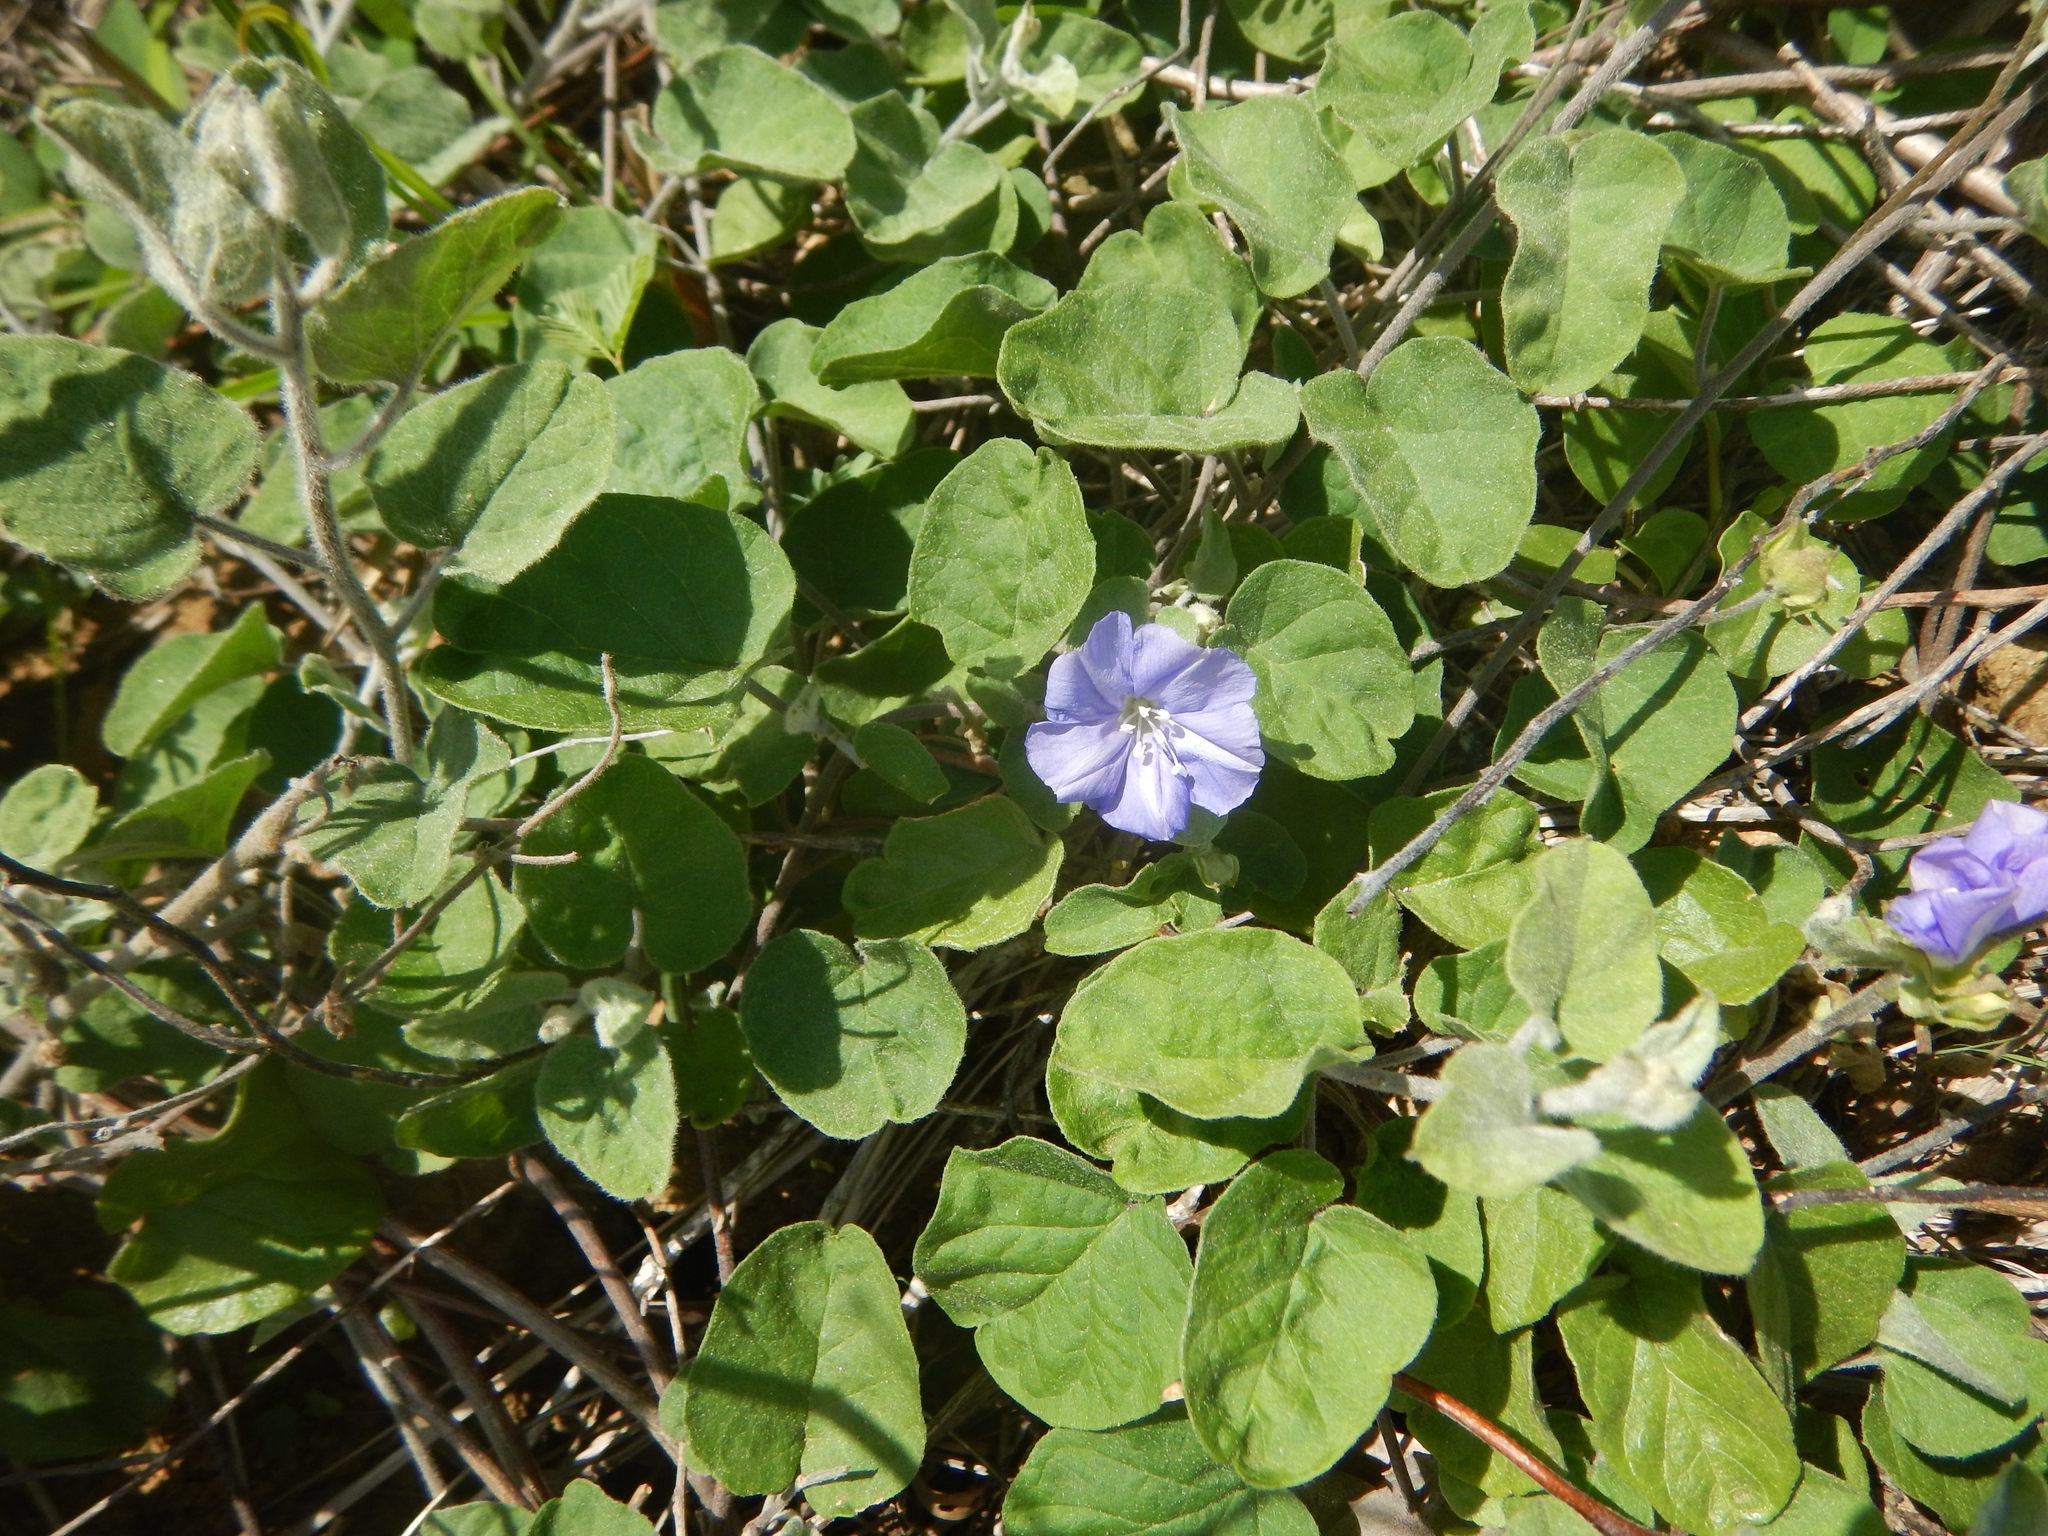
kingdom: Plantae
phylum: Tracheophyta
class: Magnoliopsida
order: Solanales
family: Convolvulaceae
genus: Jacquemontia
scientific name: Jacquemontia cumanensis
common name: Thicket clustervine
